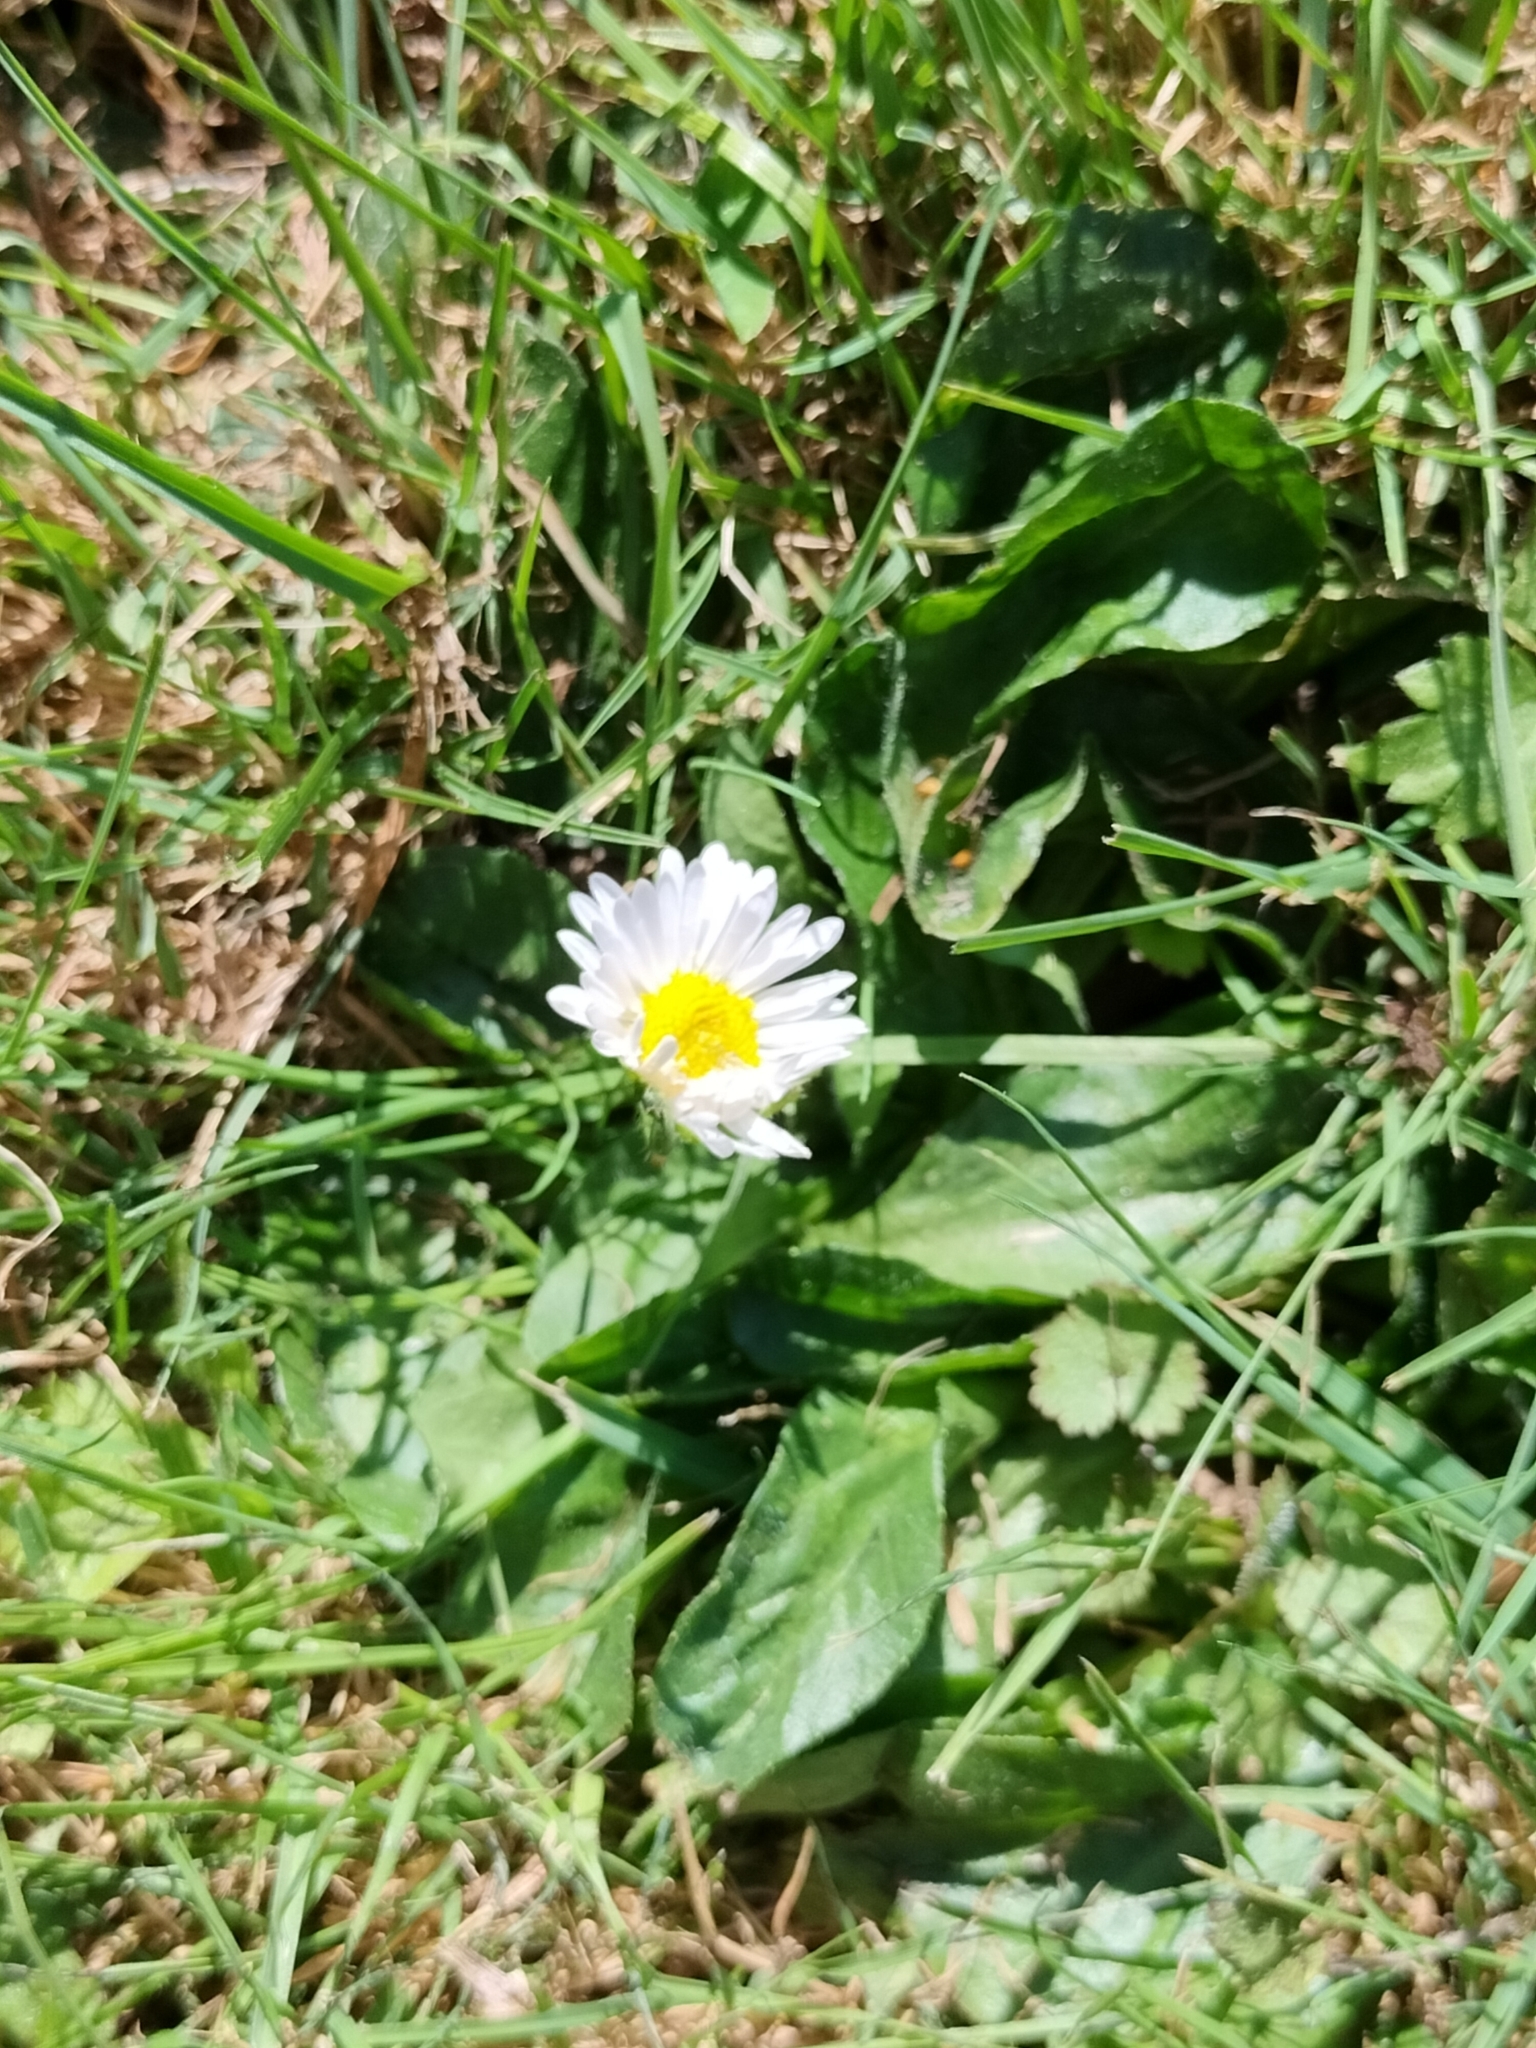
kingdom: Plantae
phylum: Tracheophyta
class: Magnoliopsida
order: Asterales
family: Asteraceae
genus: Bellis
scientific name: Bellis perennis
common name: Lawndaisy
